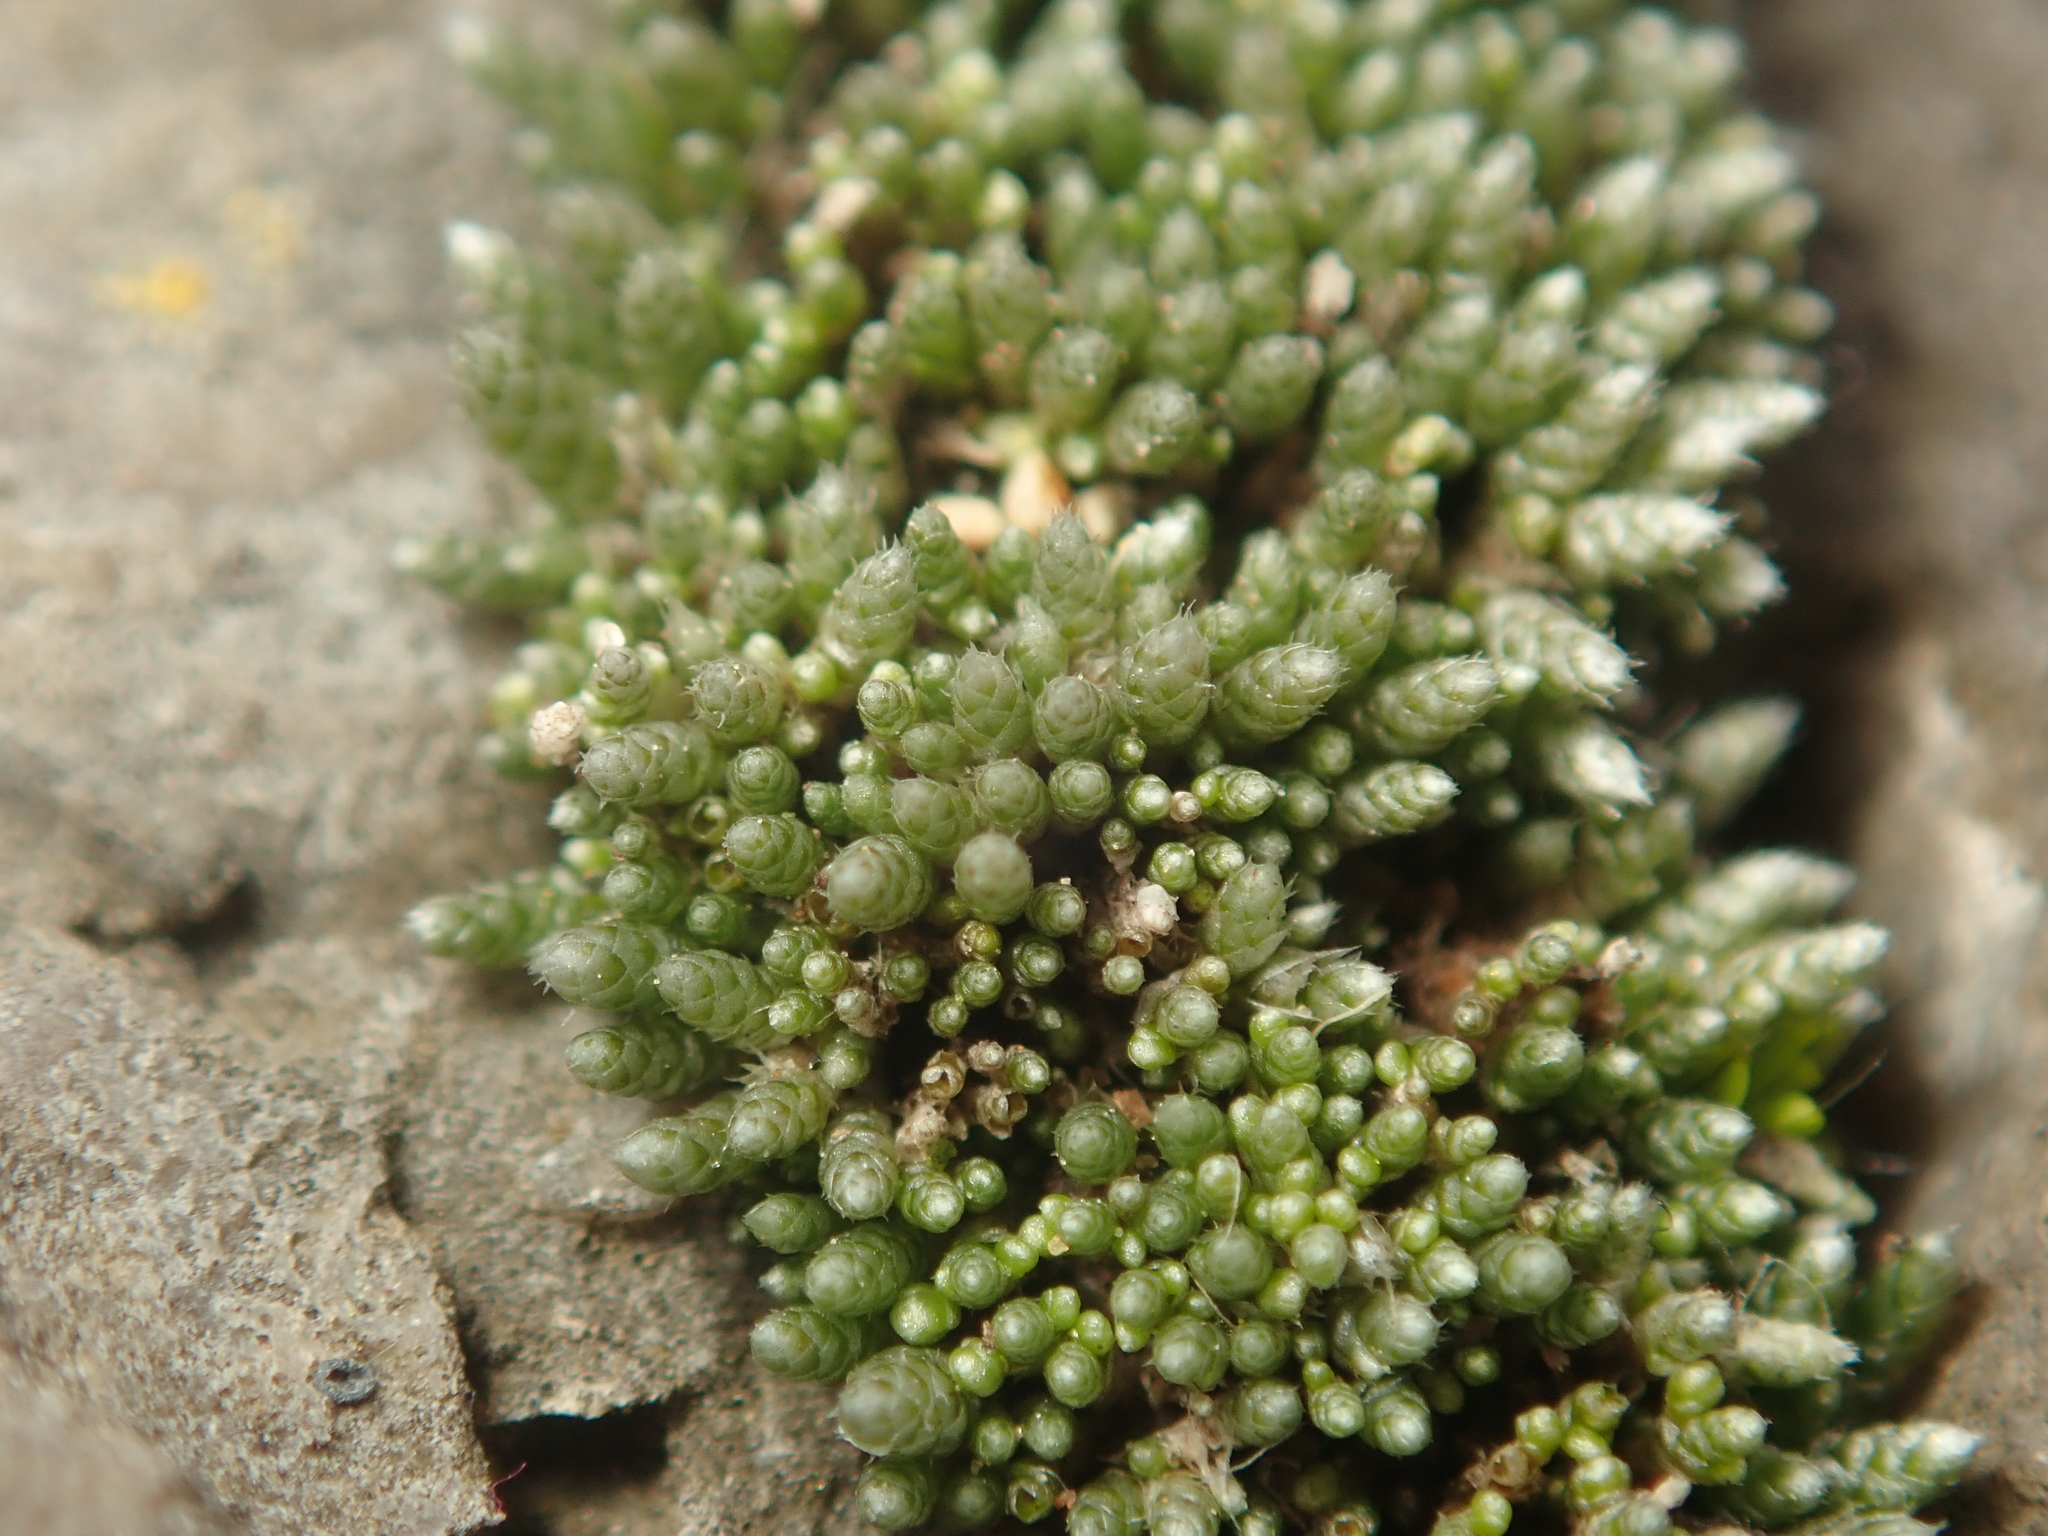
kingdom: Plantae
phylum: Bryophyta
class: Bryopsida
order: Bryales
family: Bryaceae
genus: Bryum
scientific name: Bryum argenteum
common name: Silver-moss
